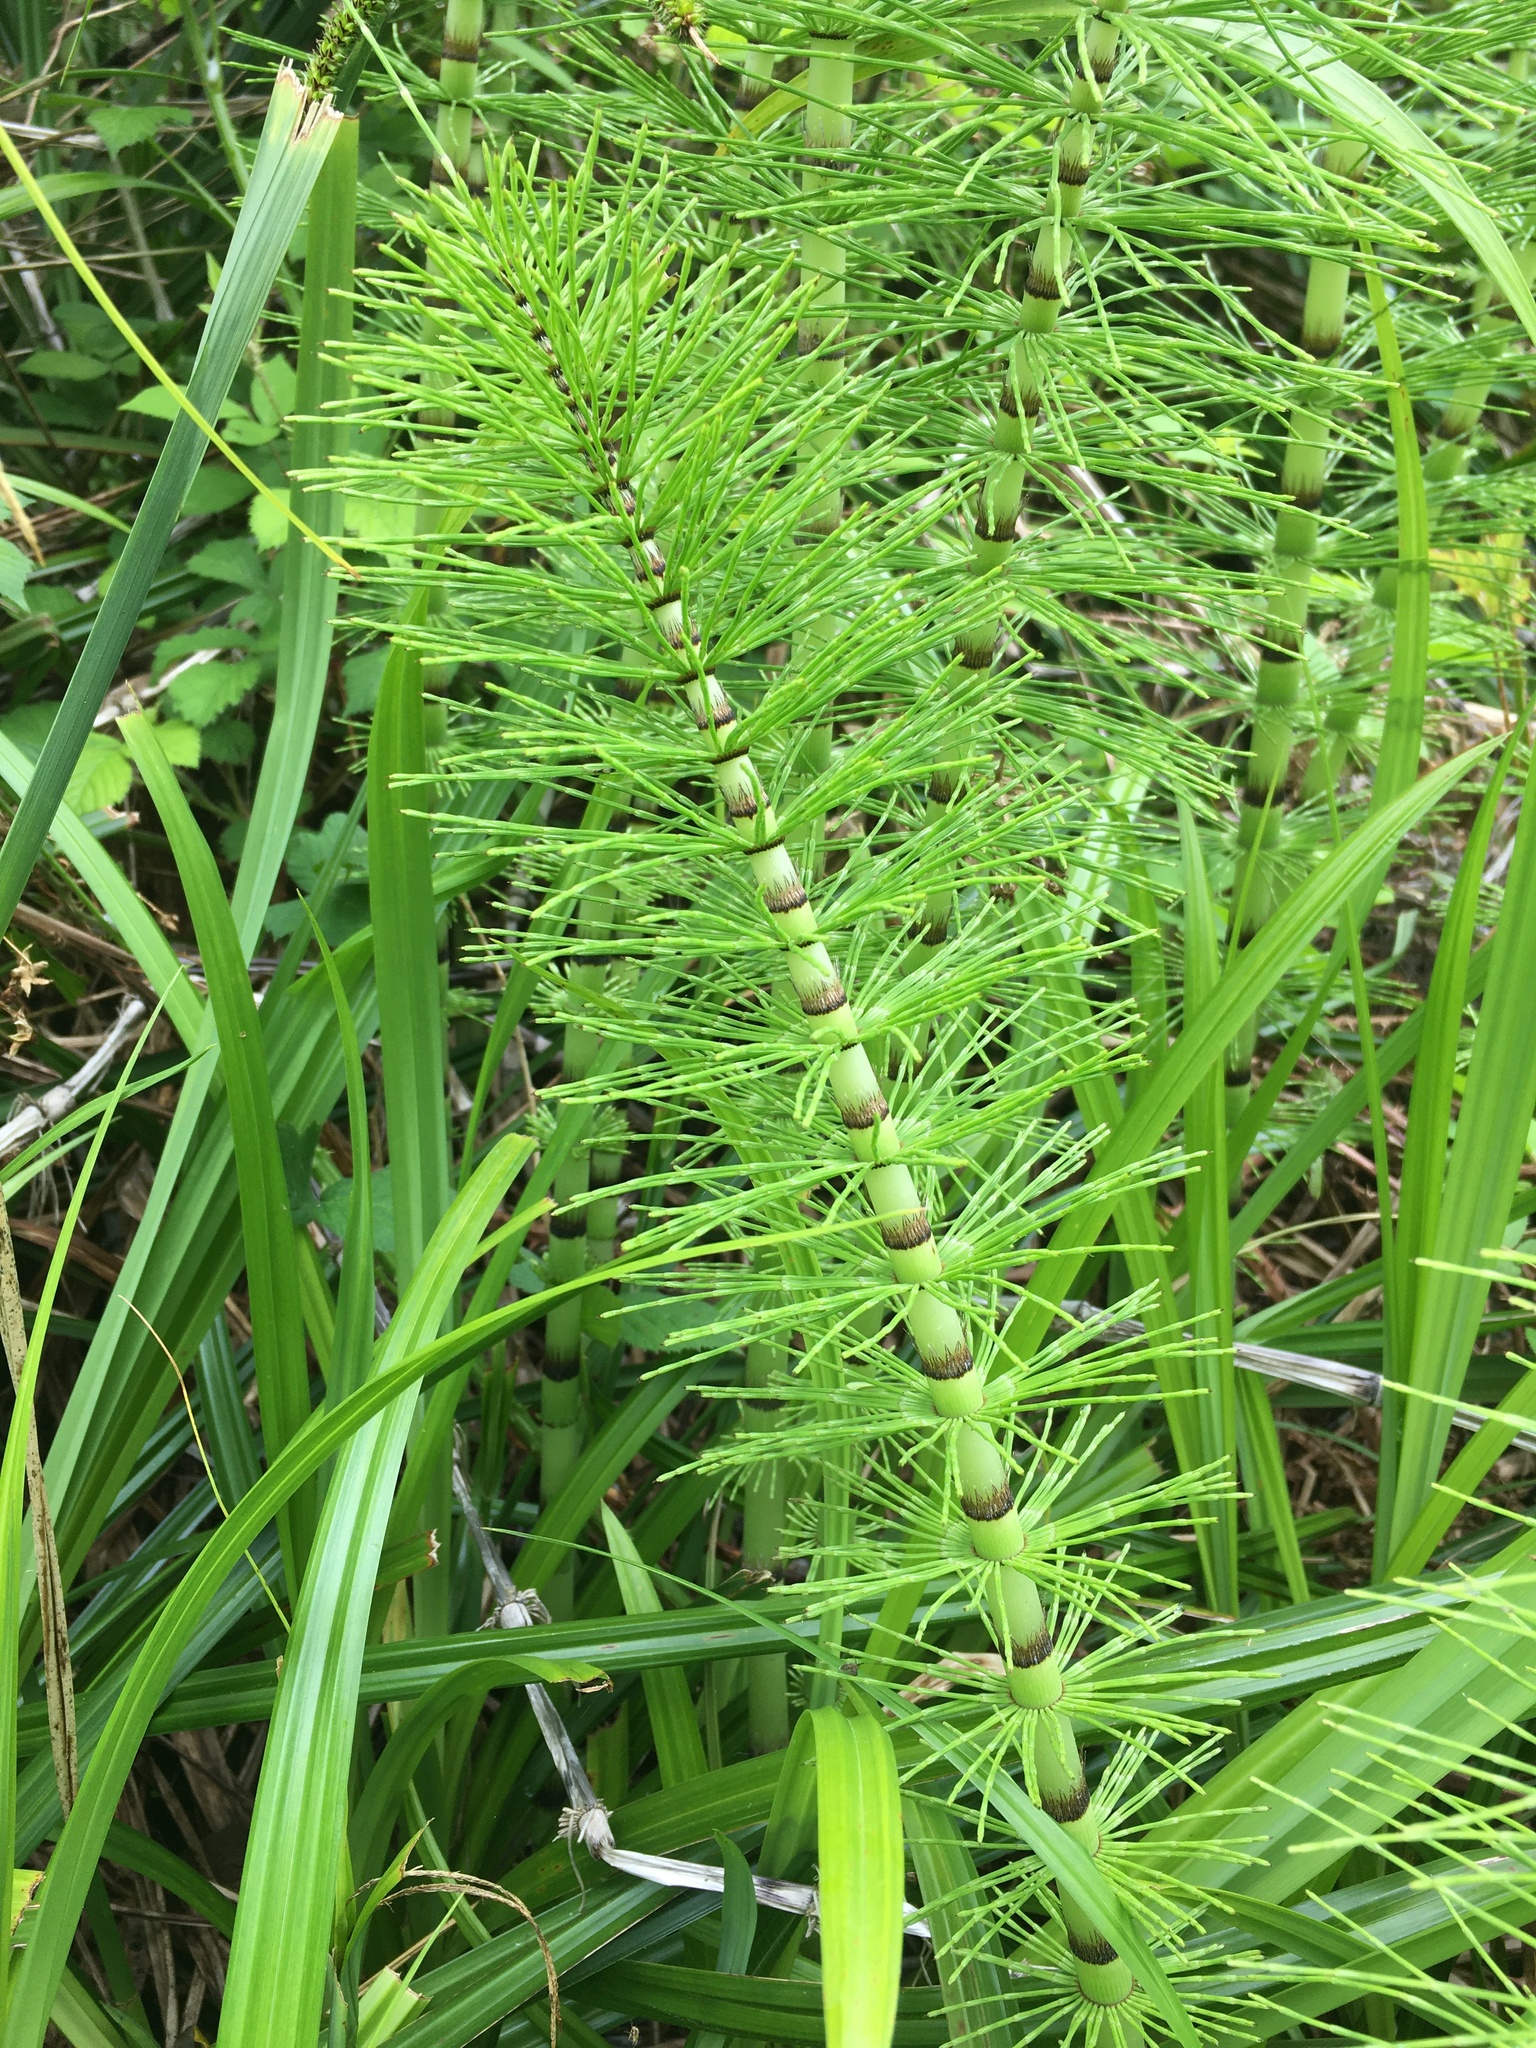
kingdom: Plantae
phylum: Tracheophyta
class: Polypodiopsida
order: Equisetales
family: Equisetaceae
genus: Equisetum
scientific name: Equisetum telmateia
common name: Great horsetail
